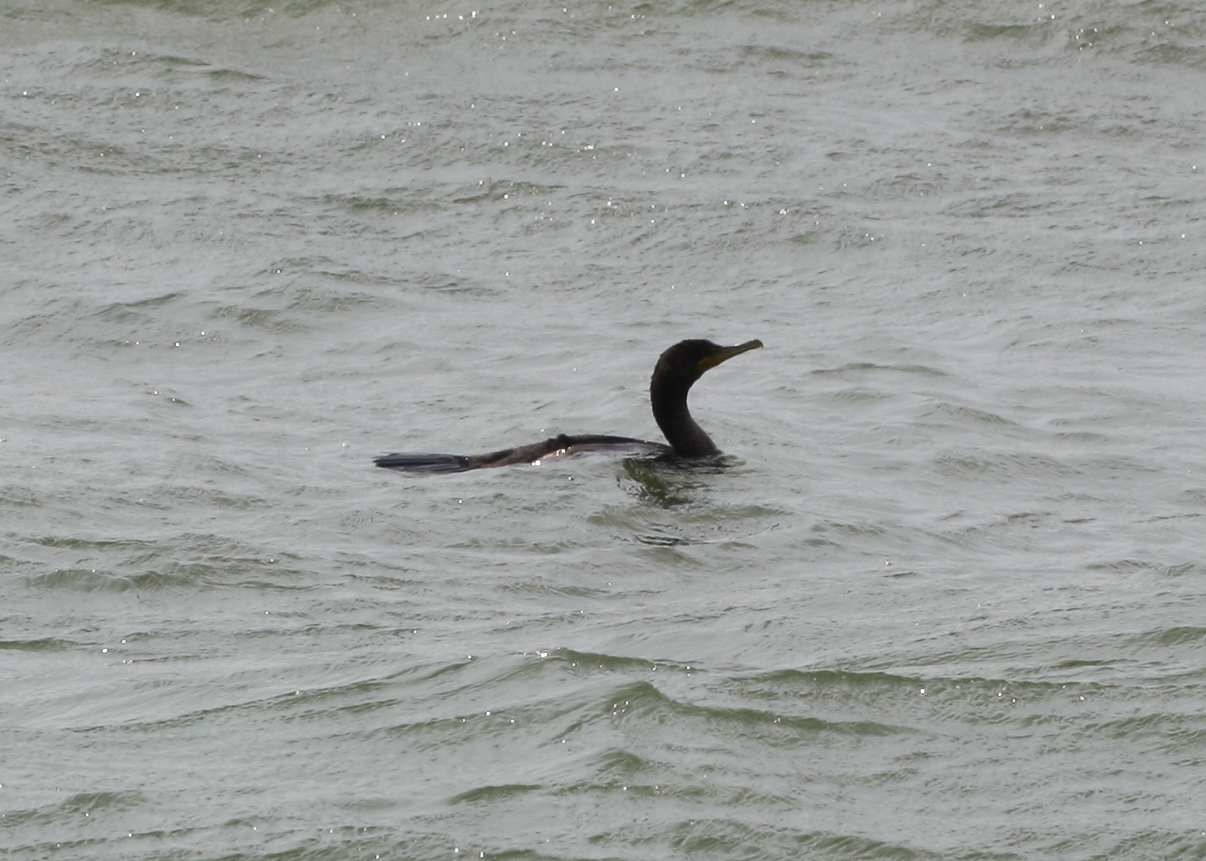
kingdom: Animalia
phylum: Chordata
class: Aves
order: Suliformes
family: Phalacrocoracidae
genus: Phalacrocorax
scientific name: Phalacrocorax auritus
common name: Double-crested cormorant
